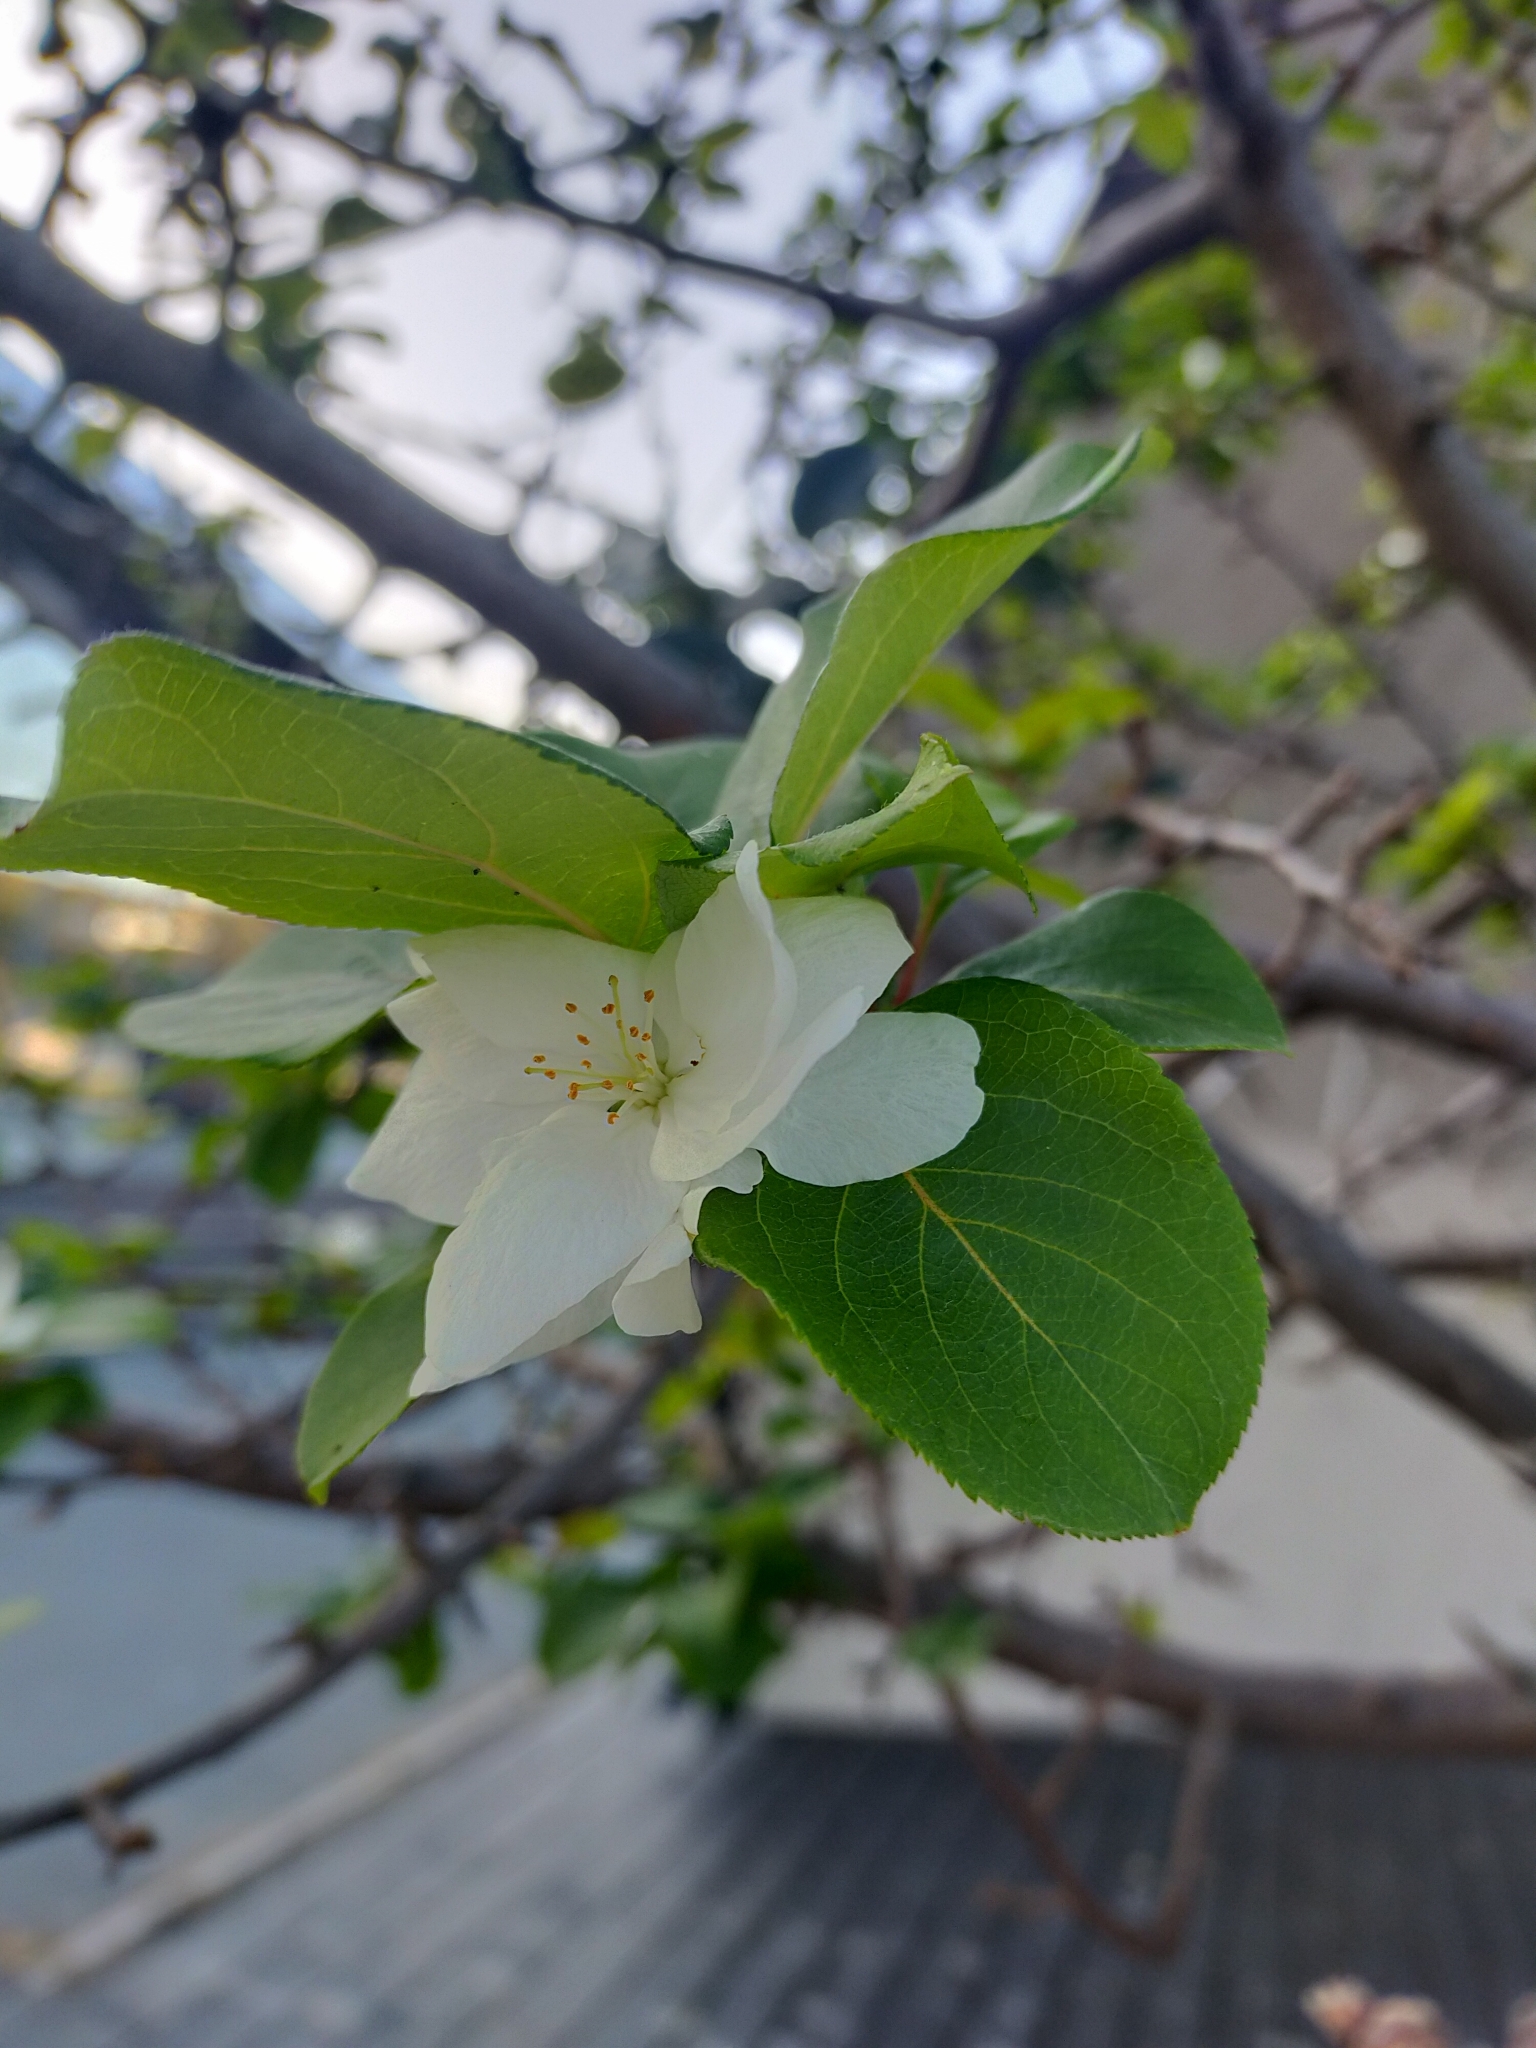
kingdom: Plantae
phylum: Tracheophyta
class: Magnoliopsida
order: Rosales
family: Rosaceae
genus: Malus
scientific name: Malus mandshurica
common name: Siberian crabapple
